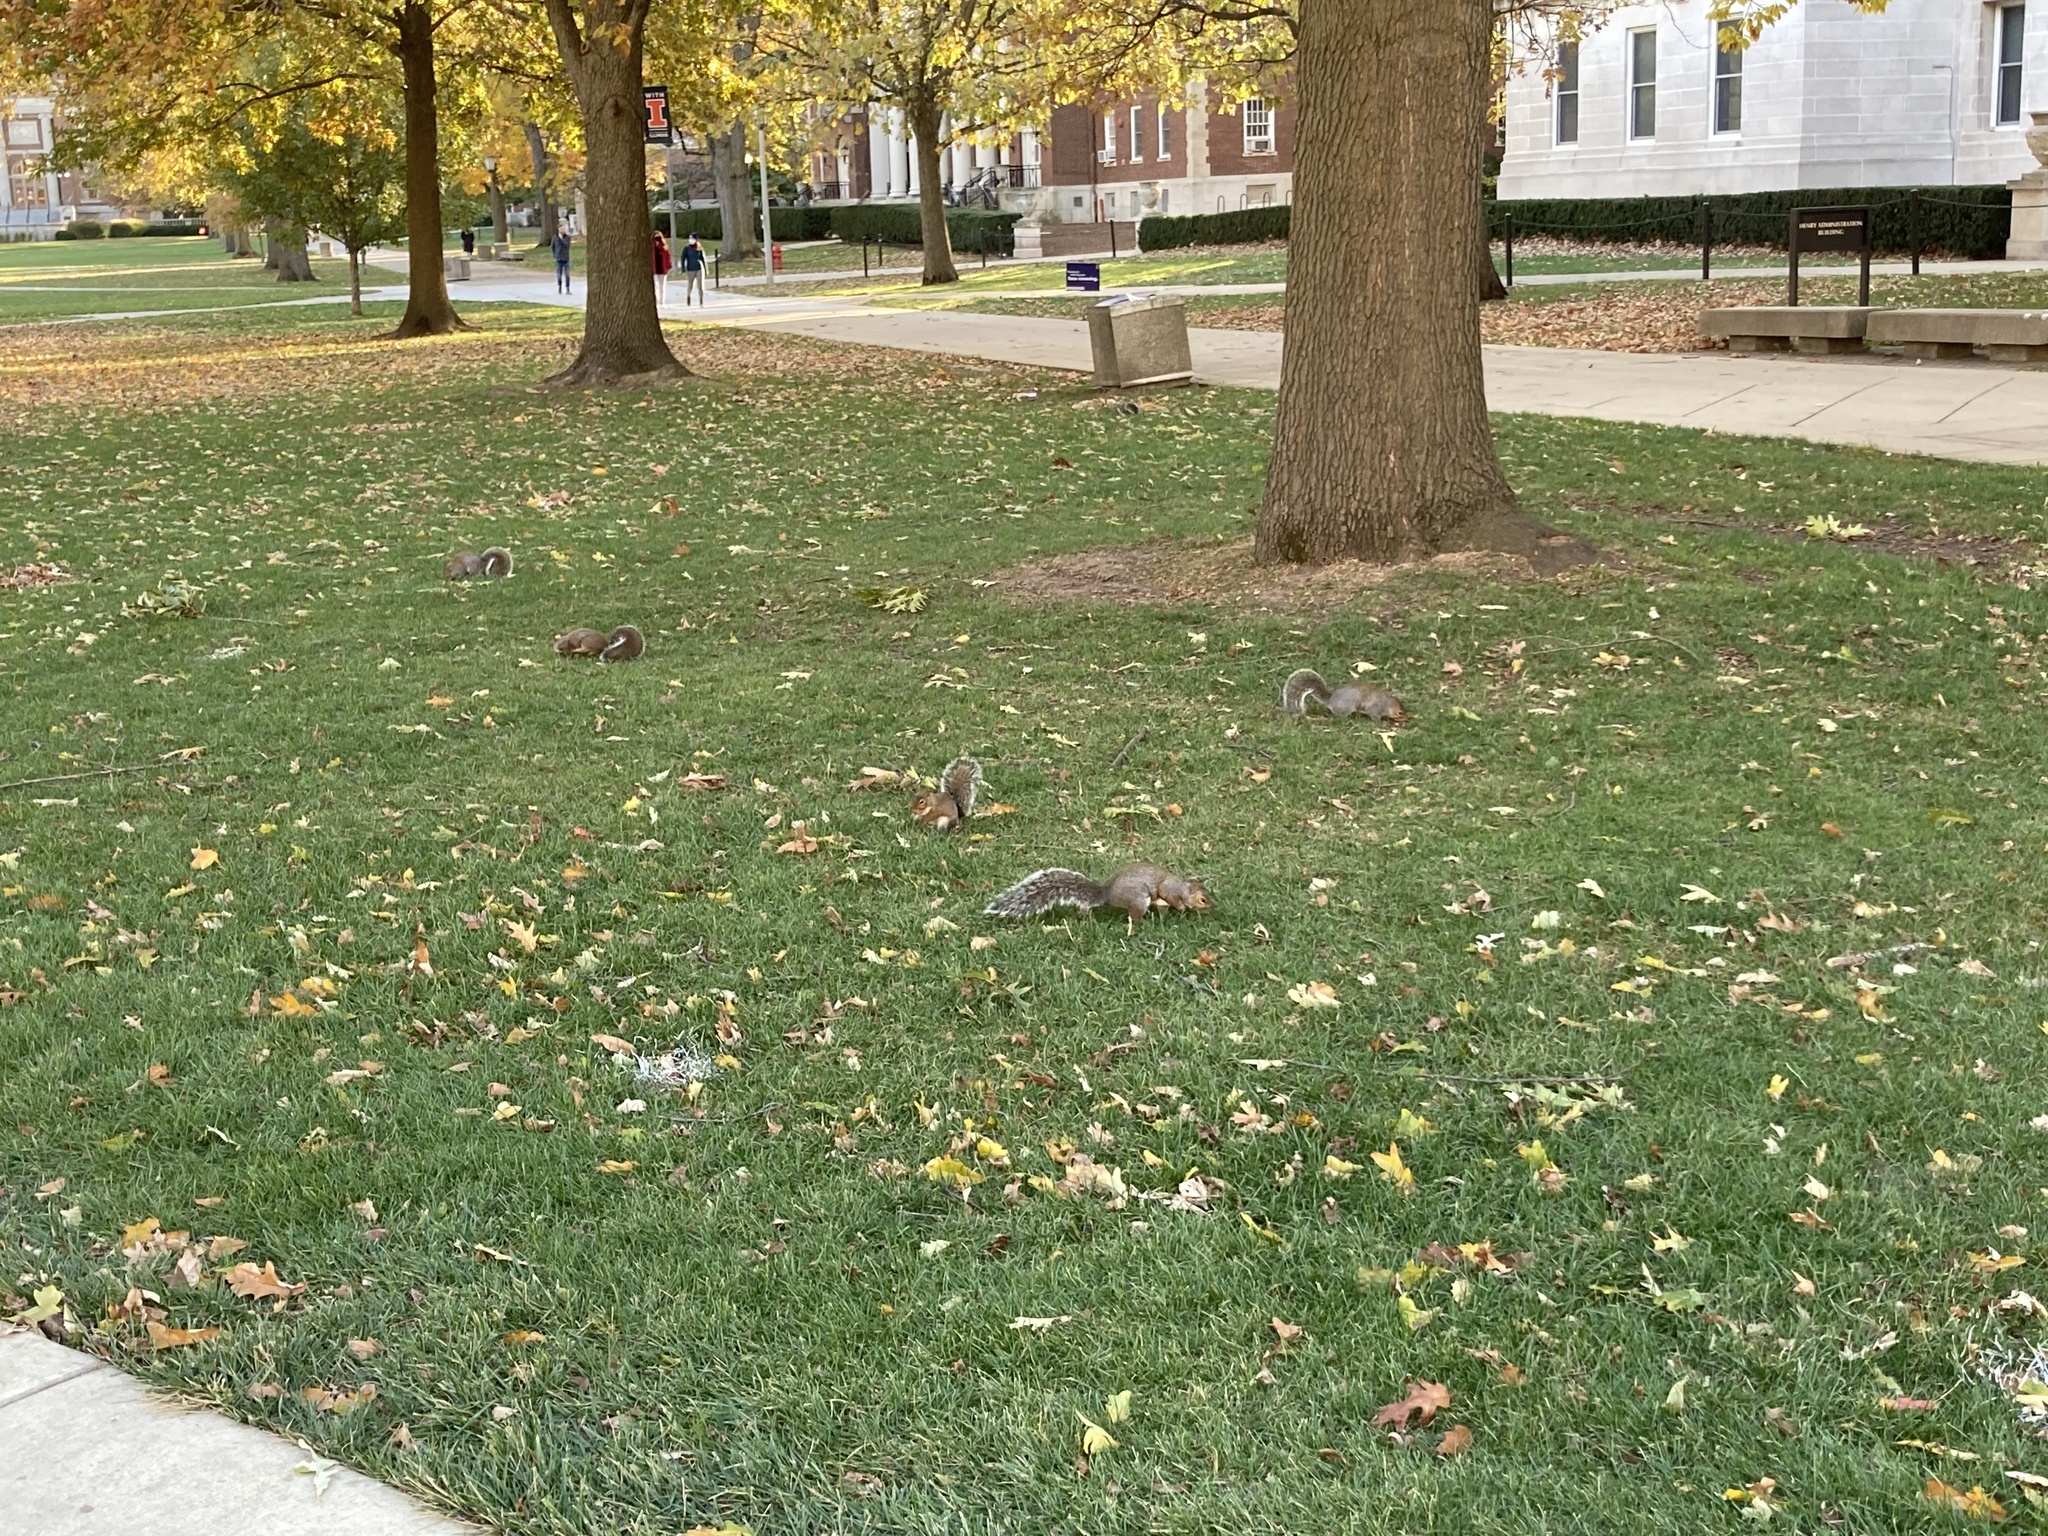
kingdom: Animalia
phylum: Chordata
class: Mammalia
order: Rodentia
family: Sciuridae
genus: Sciurus
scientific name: Sciurus carolinensis
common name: Eastern gray squirrel
